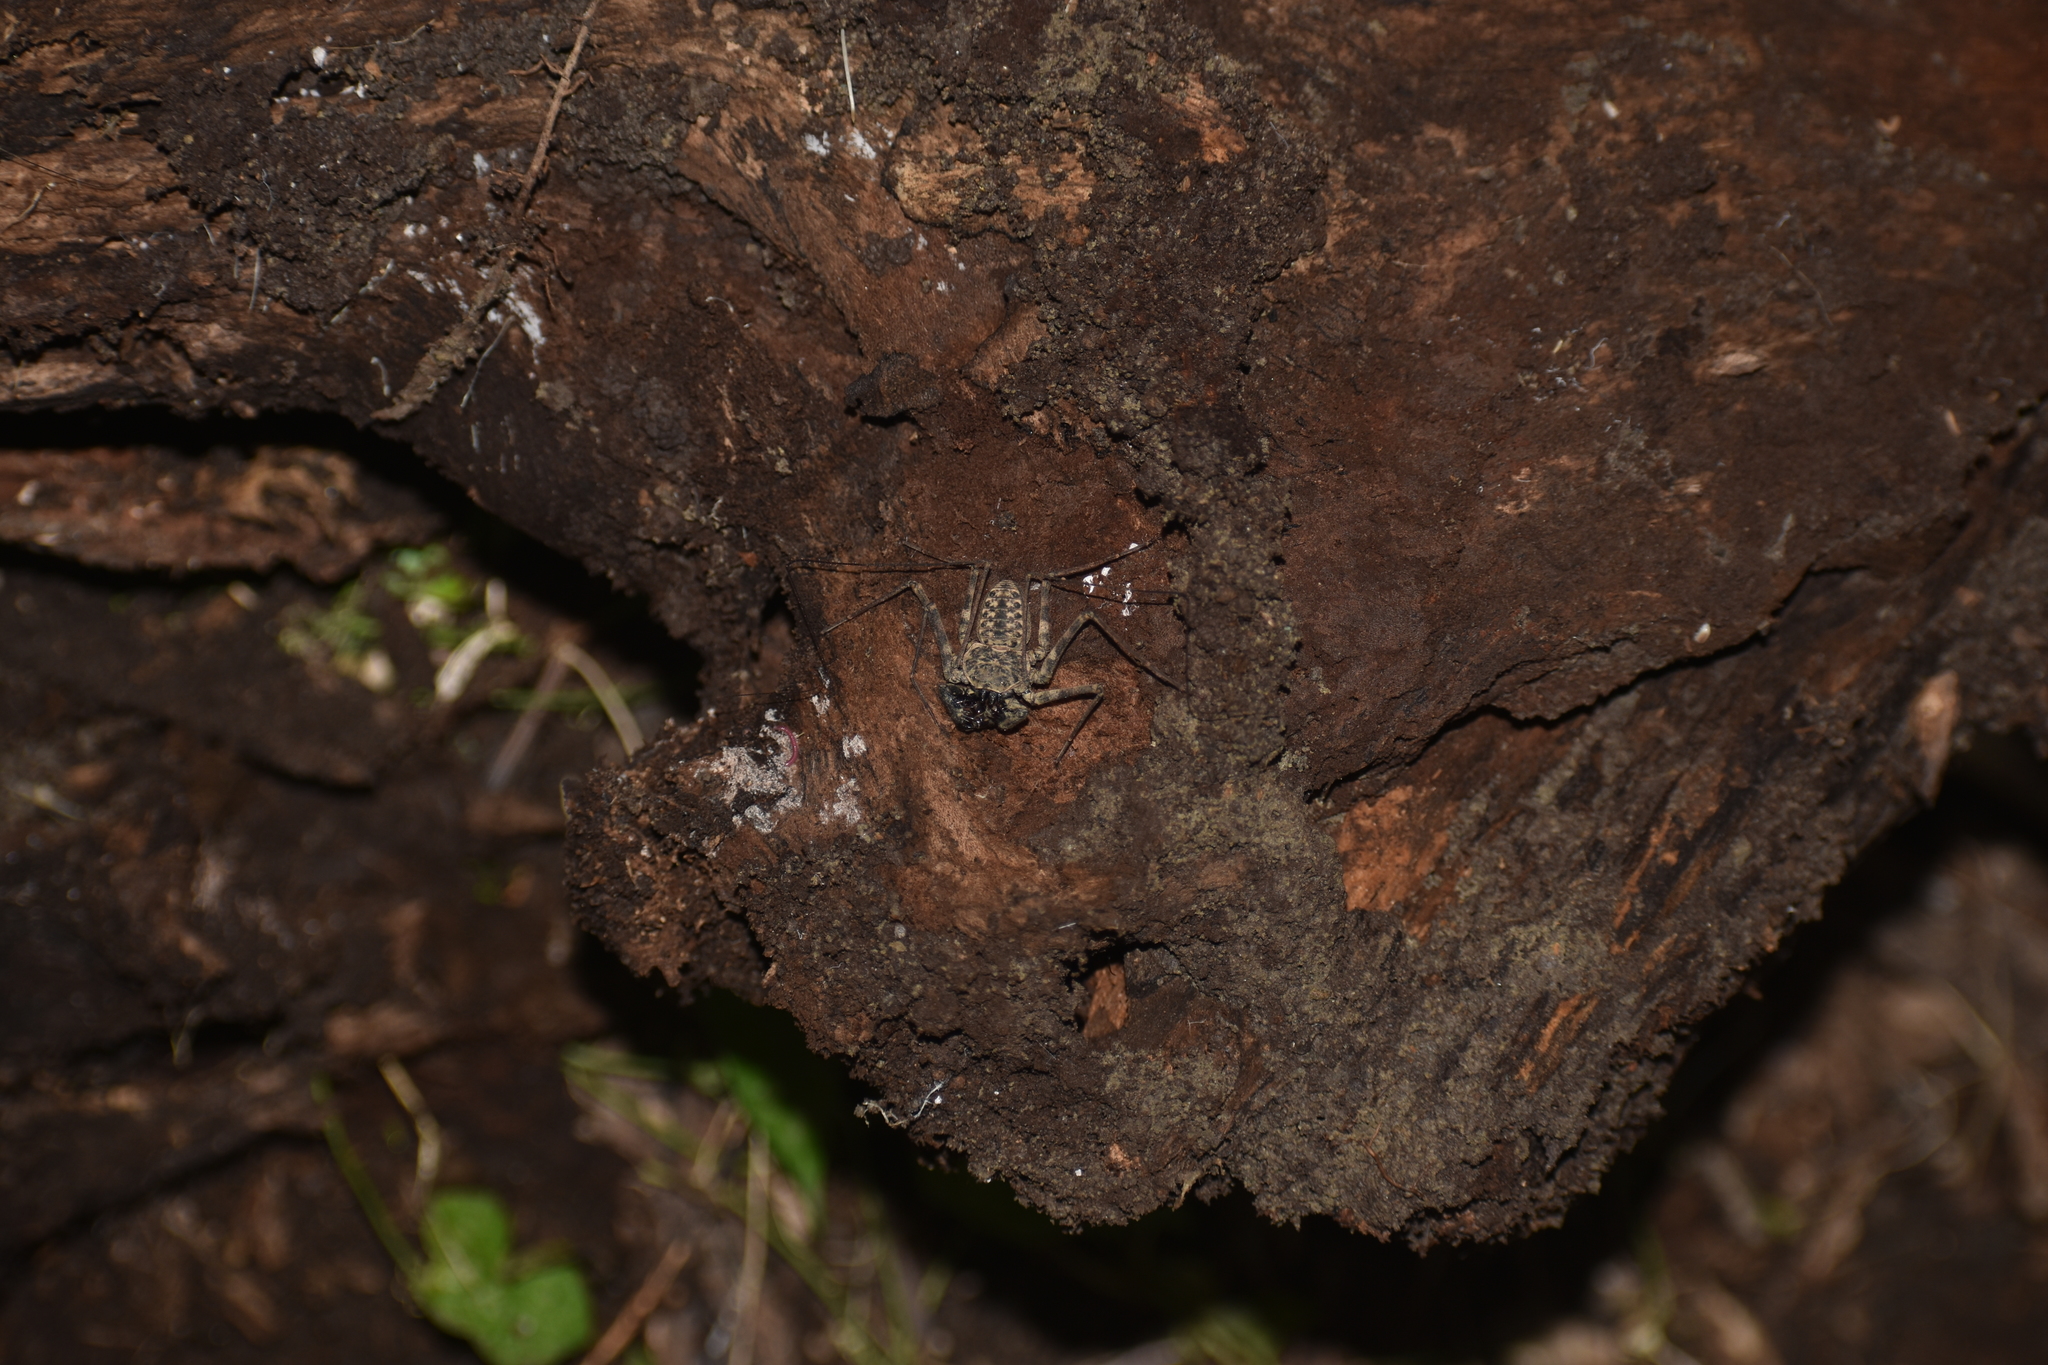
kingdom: Animalia
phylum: Arthropoda
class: Arachnida
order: Amblypygi
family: Phrynidae
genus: Phrynus
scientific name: Phrynus barbadensis
